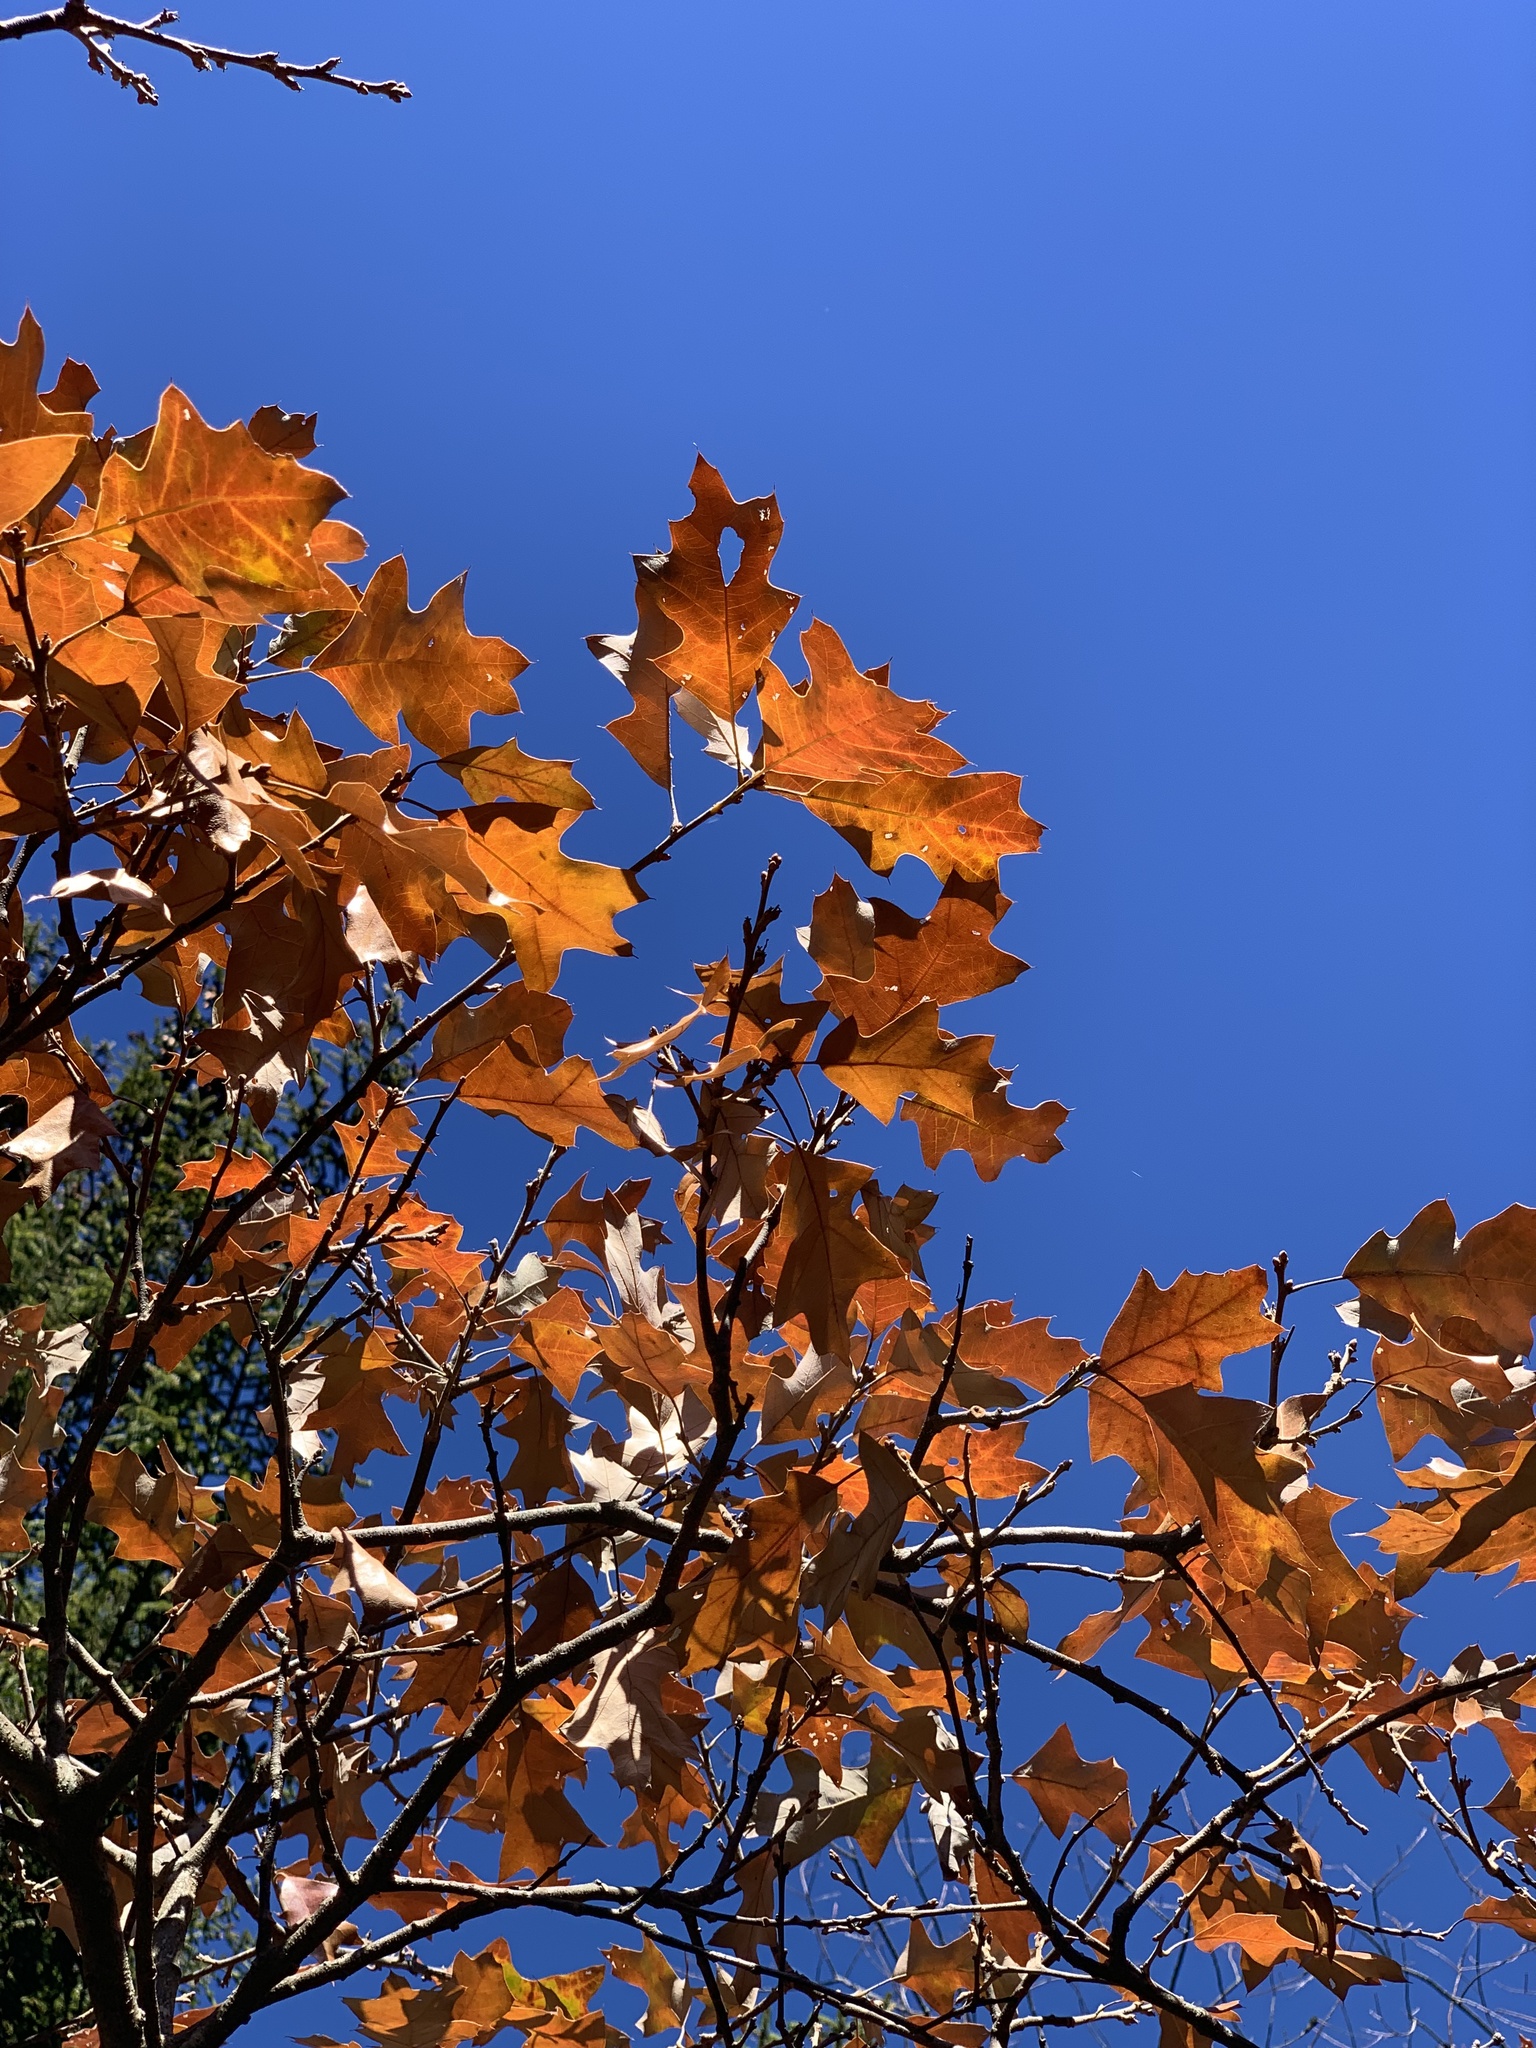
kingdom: Plantae
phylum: Tracheophyta
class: Magnoliopsida
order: Fagales
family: Fagaceae
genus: Quercus
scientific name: Quercus ilicifolia
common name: Bear oak
